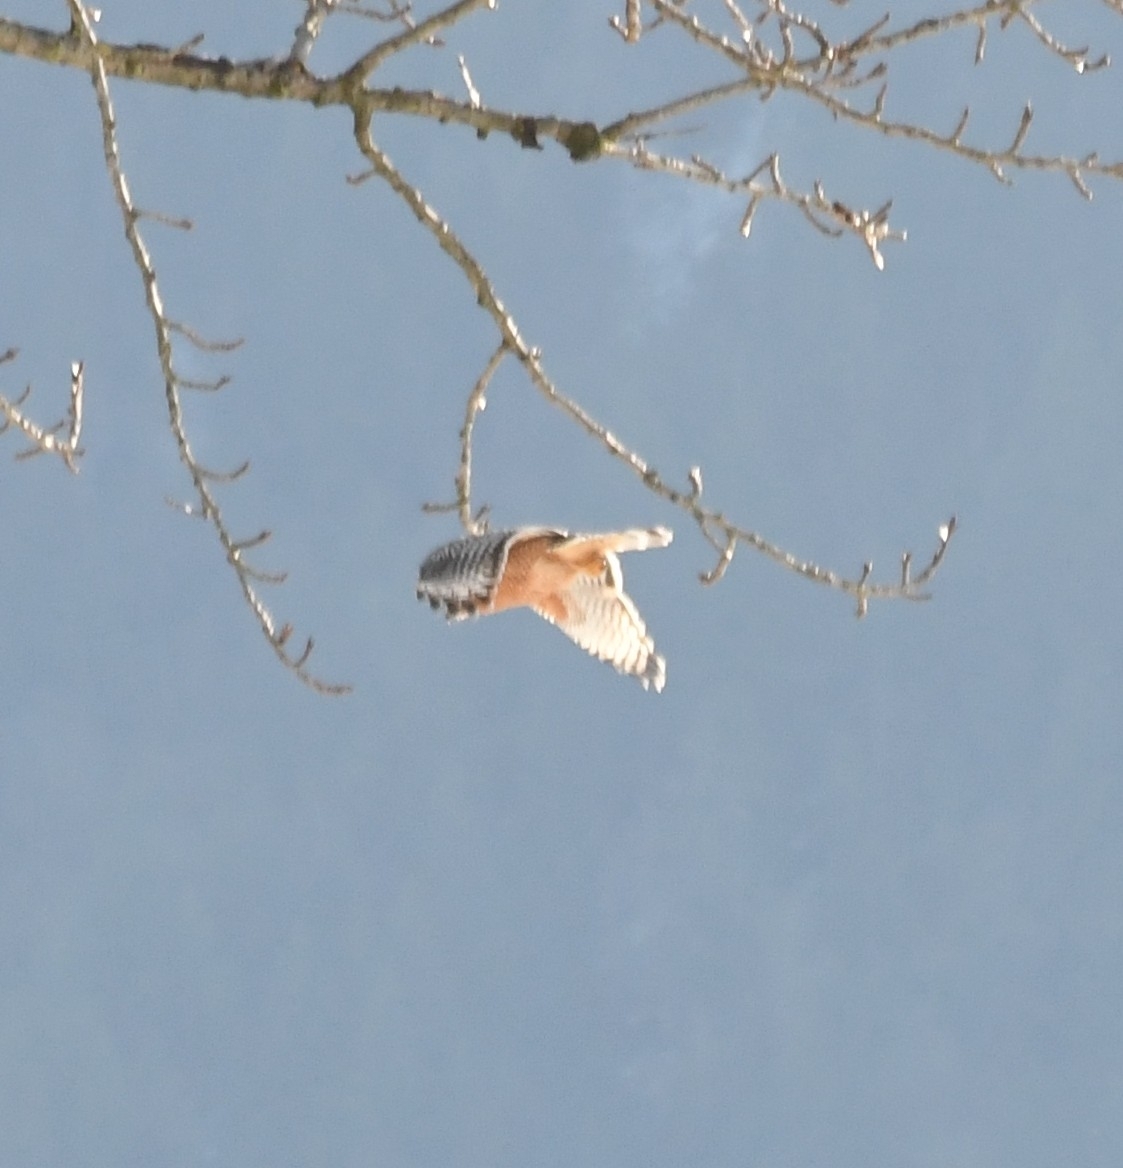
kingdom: Animalia
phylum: Chordata
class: Aves
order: Accipitriformes
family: Accipitridae
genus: Buteo
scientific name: Buteo lineatus
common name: Red-shouldered hawk
